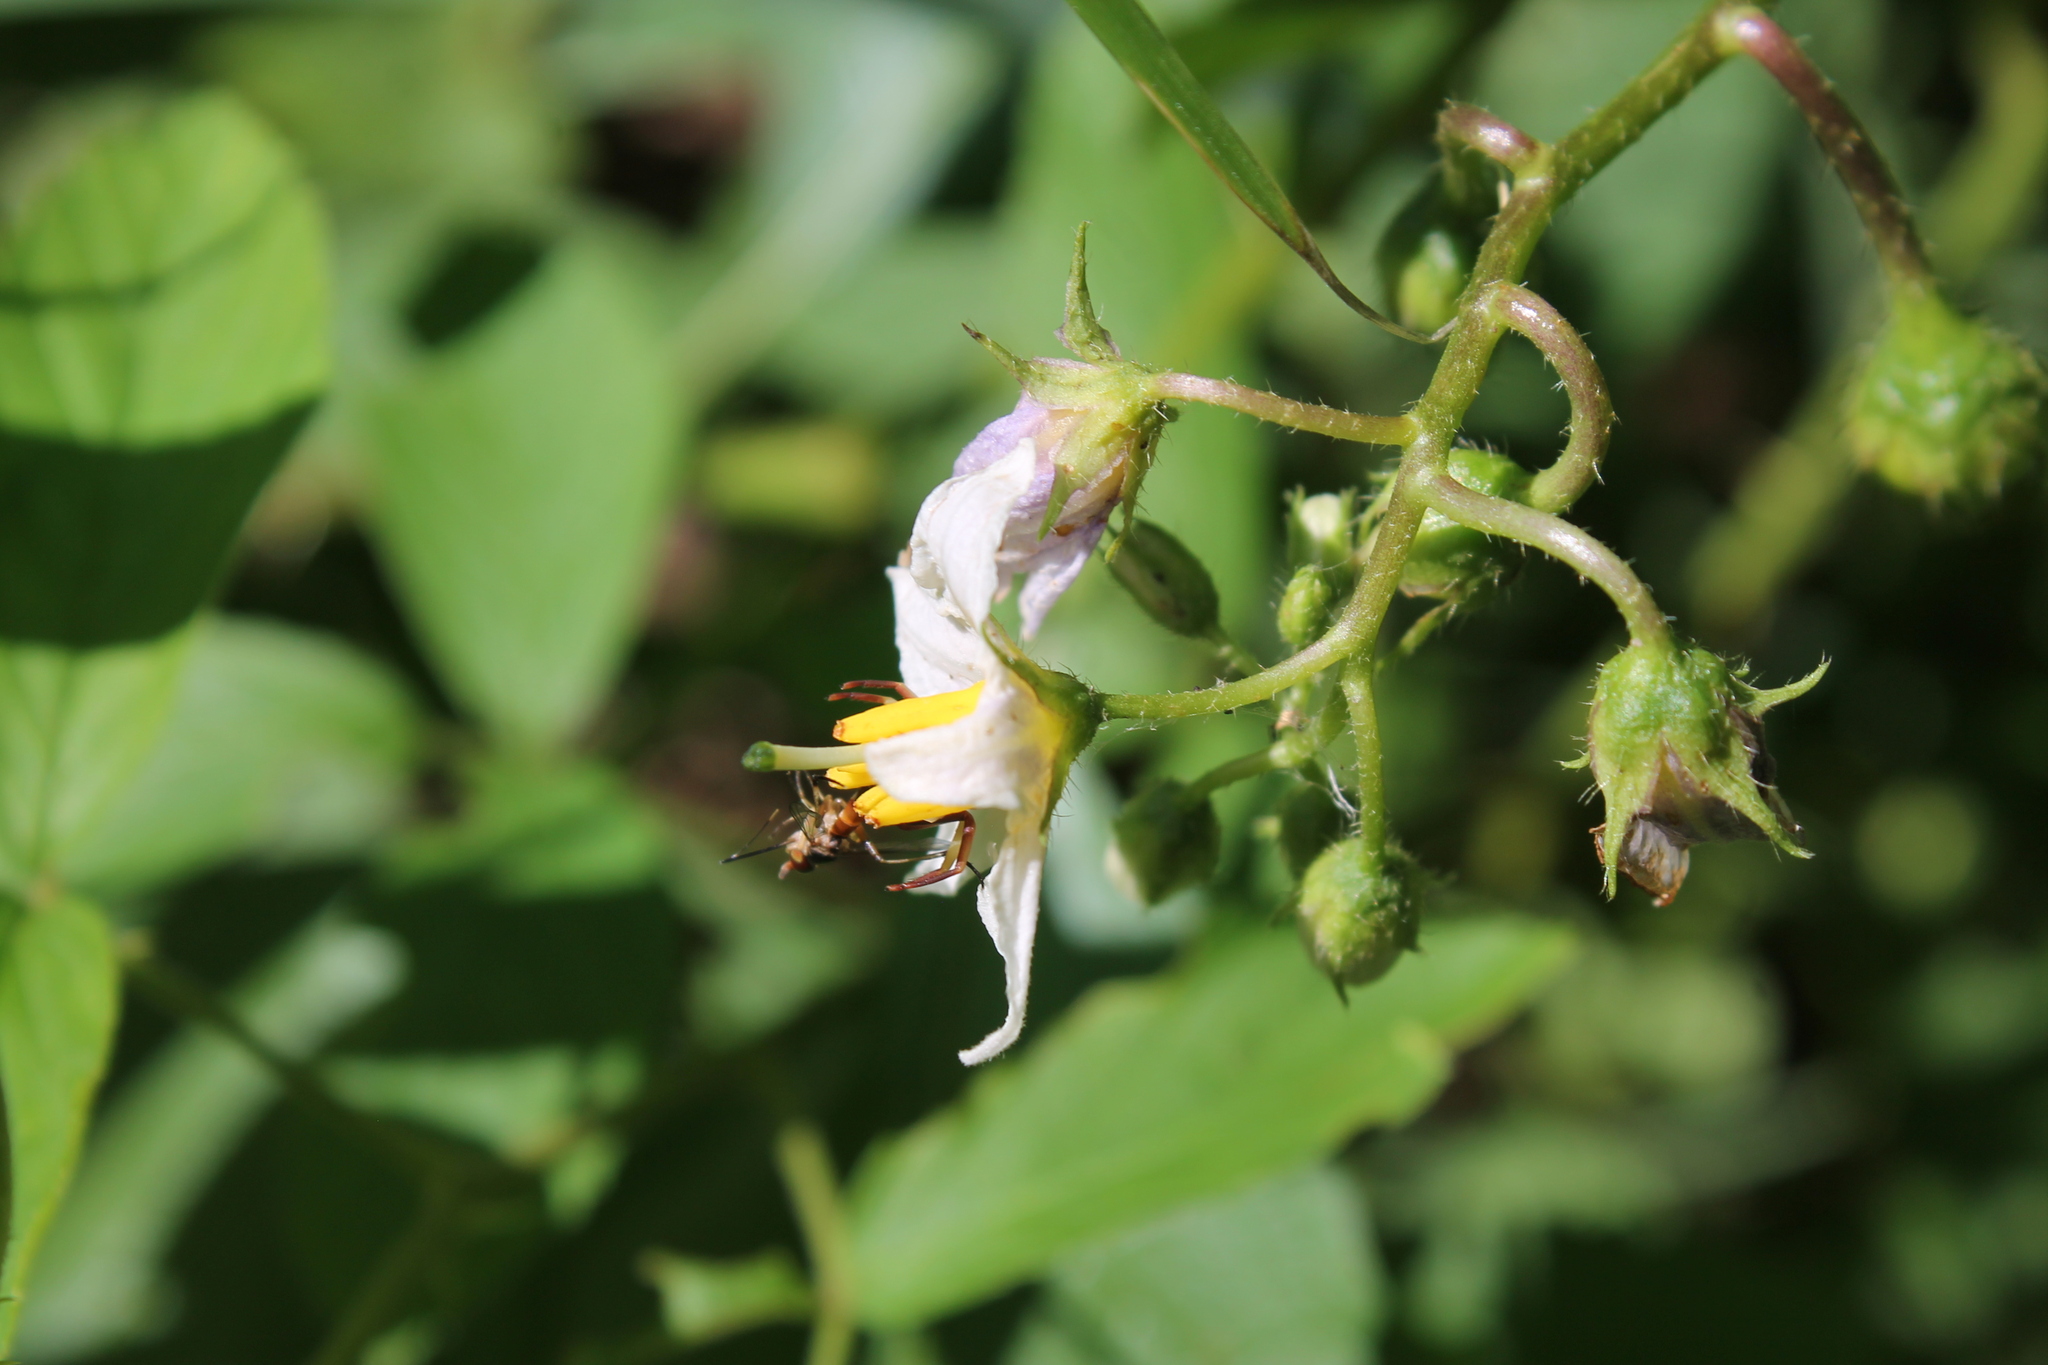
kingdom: Plantae
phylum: Tracheophyta
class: Magnoliopsida
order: Solanales
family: Solanaceae
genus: Solanum
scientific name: Solanum carolinense
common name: Horse-nettle
